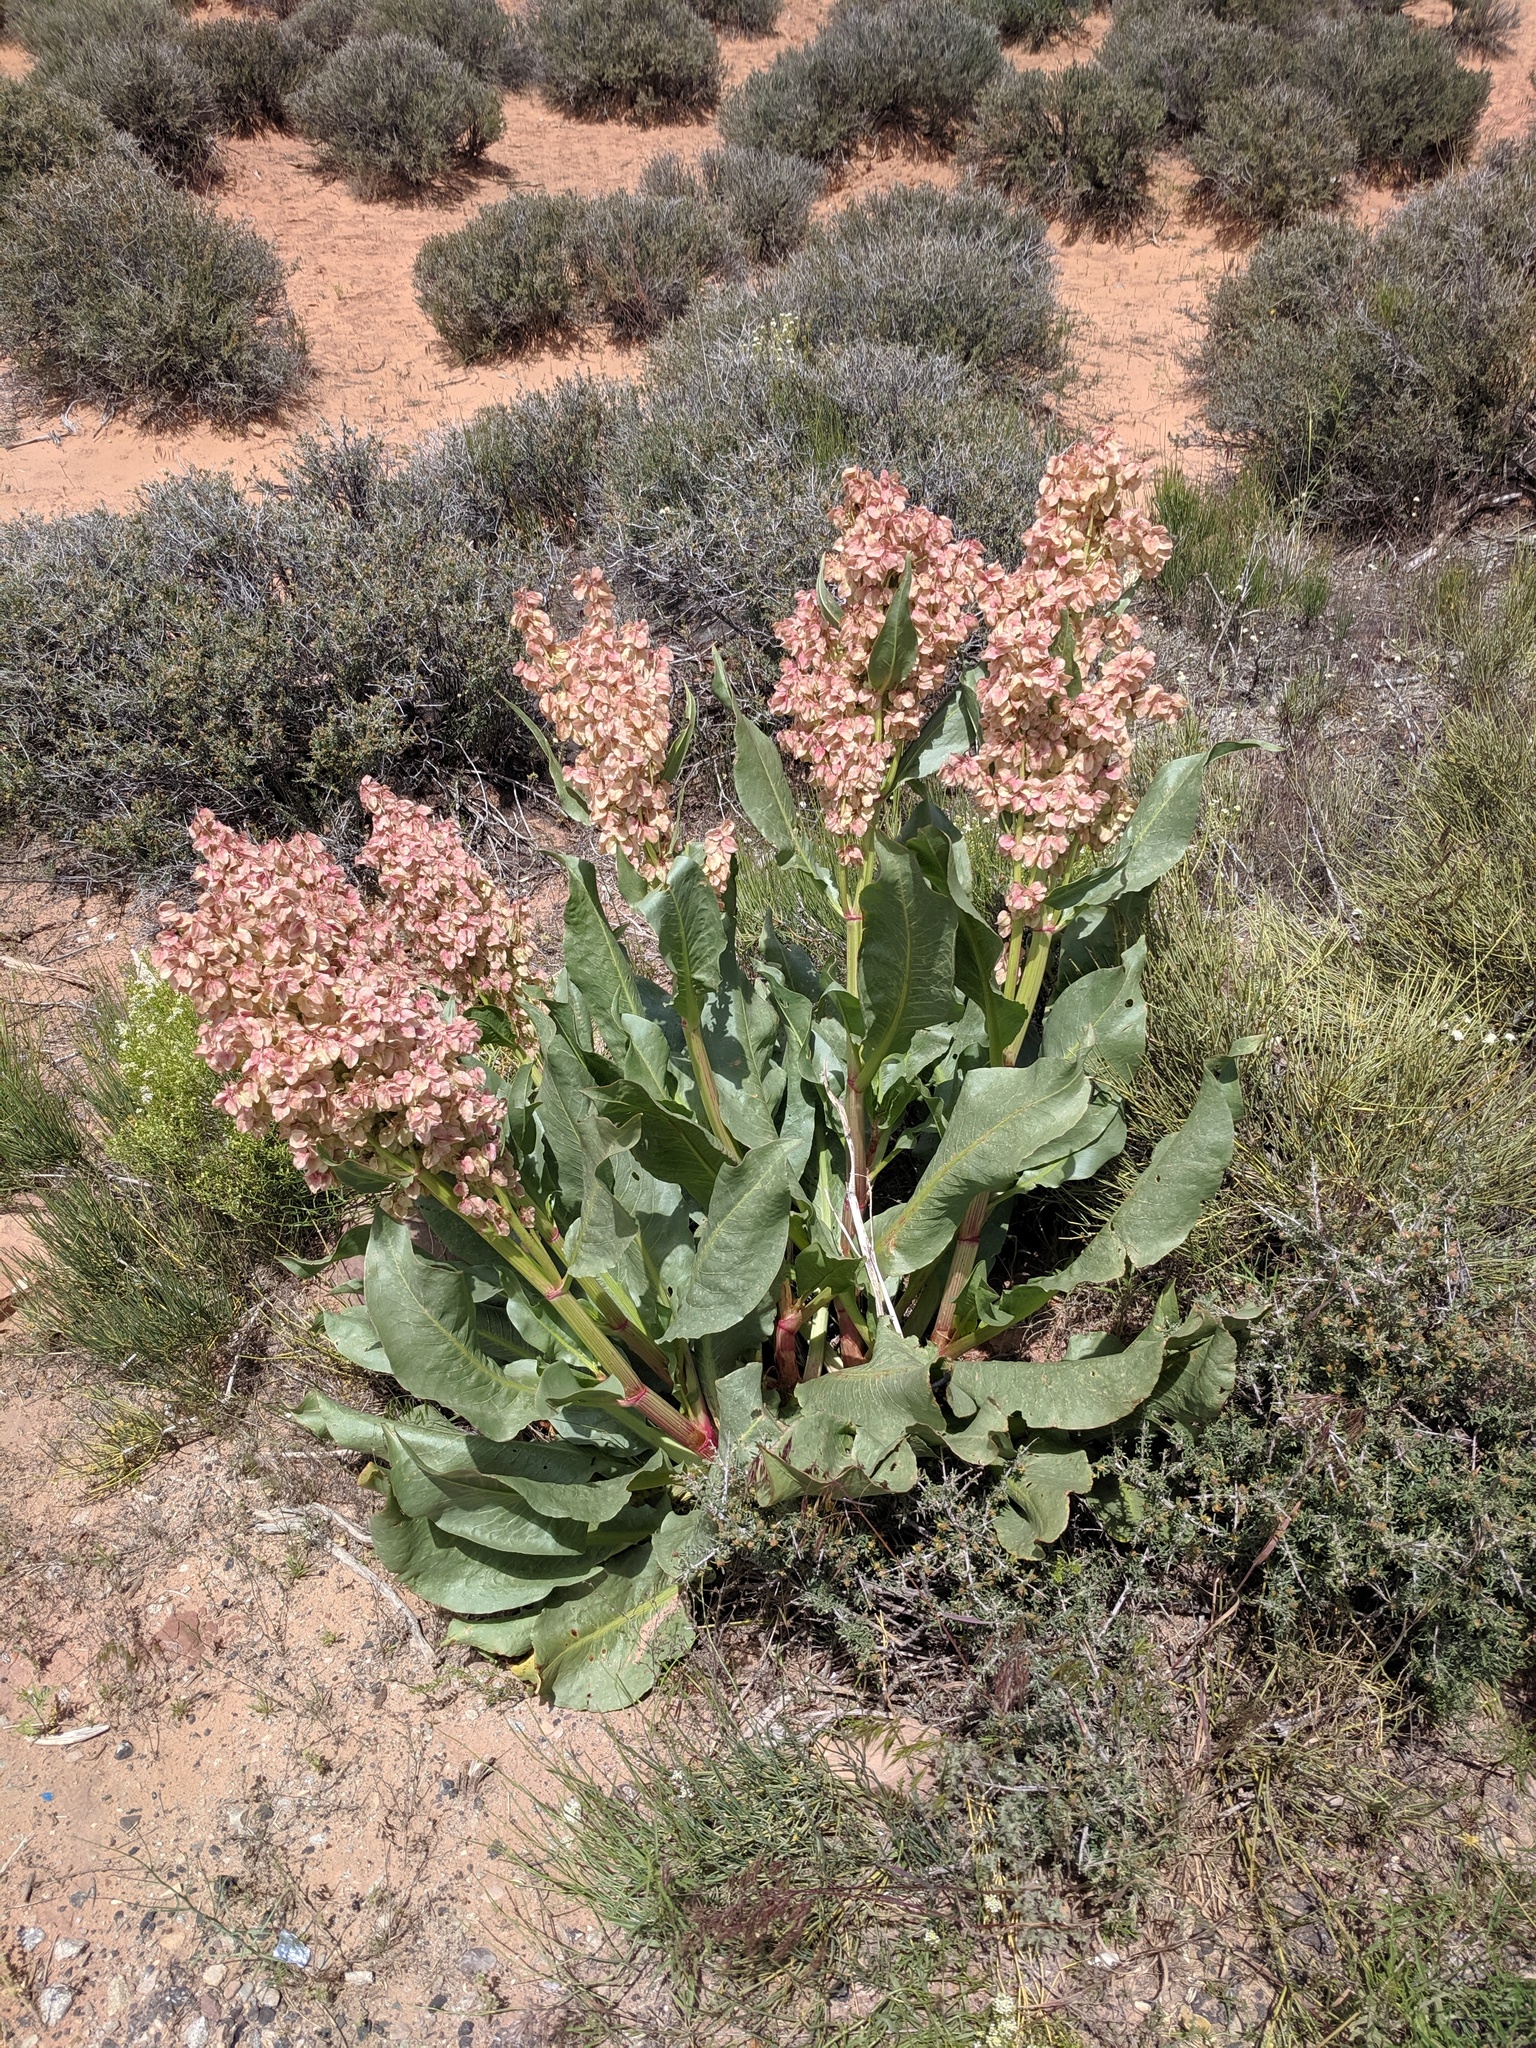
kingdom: Plantae
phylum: Tracheophyta
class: Magnoliopsida
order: Caryophyllales
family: Polygonaceae
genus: Rumex
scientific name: Rumex hymenosepalus
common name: Ganagra
